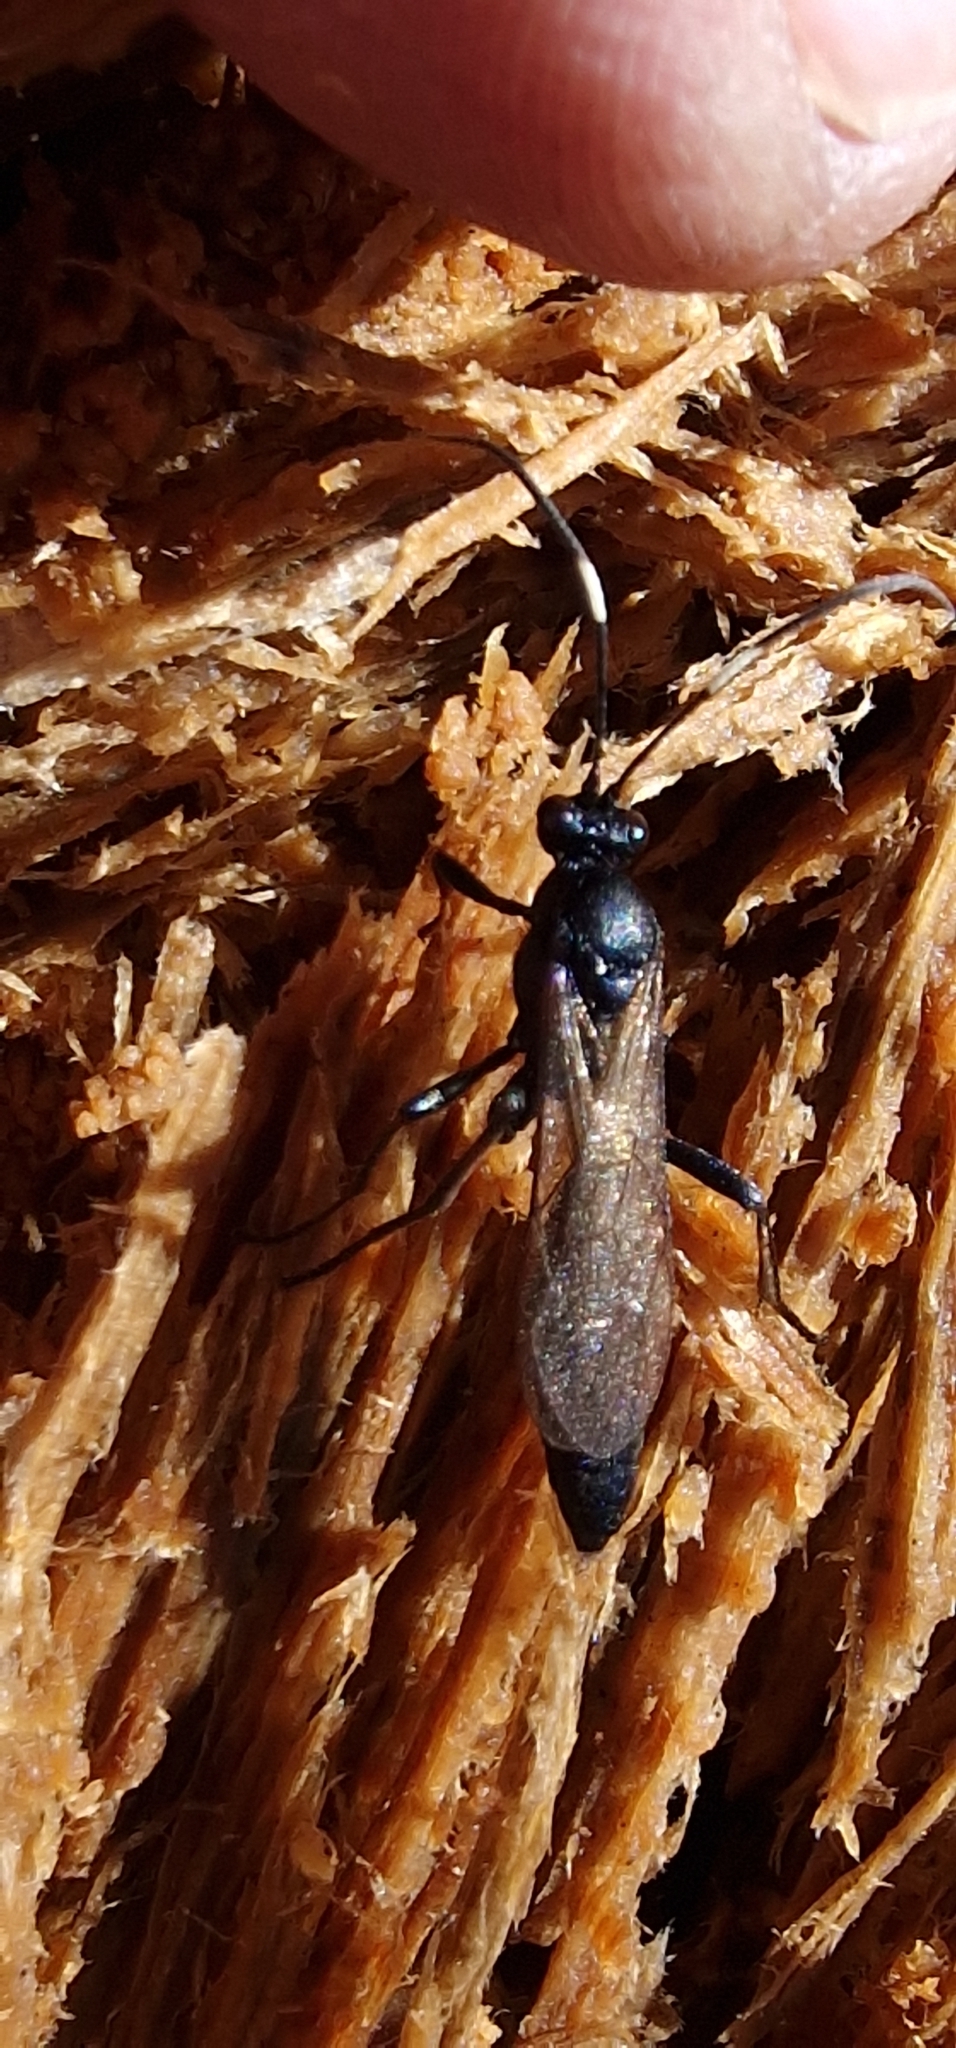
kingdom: Animalia
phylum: Arthropoda
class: Insecta
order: Hymenoptera
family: Ichneumonidae
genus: Stenichneumon
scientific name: Stenichneumon culpator
